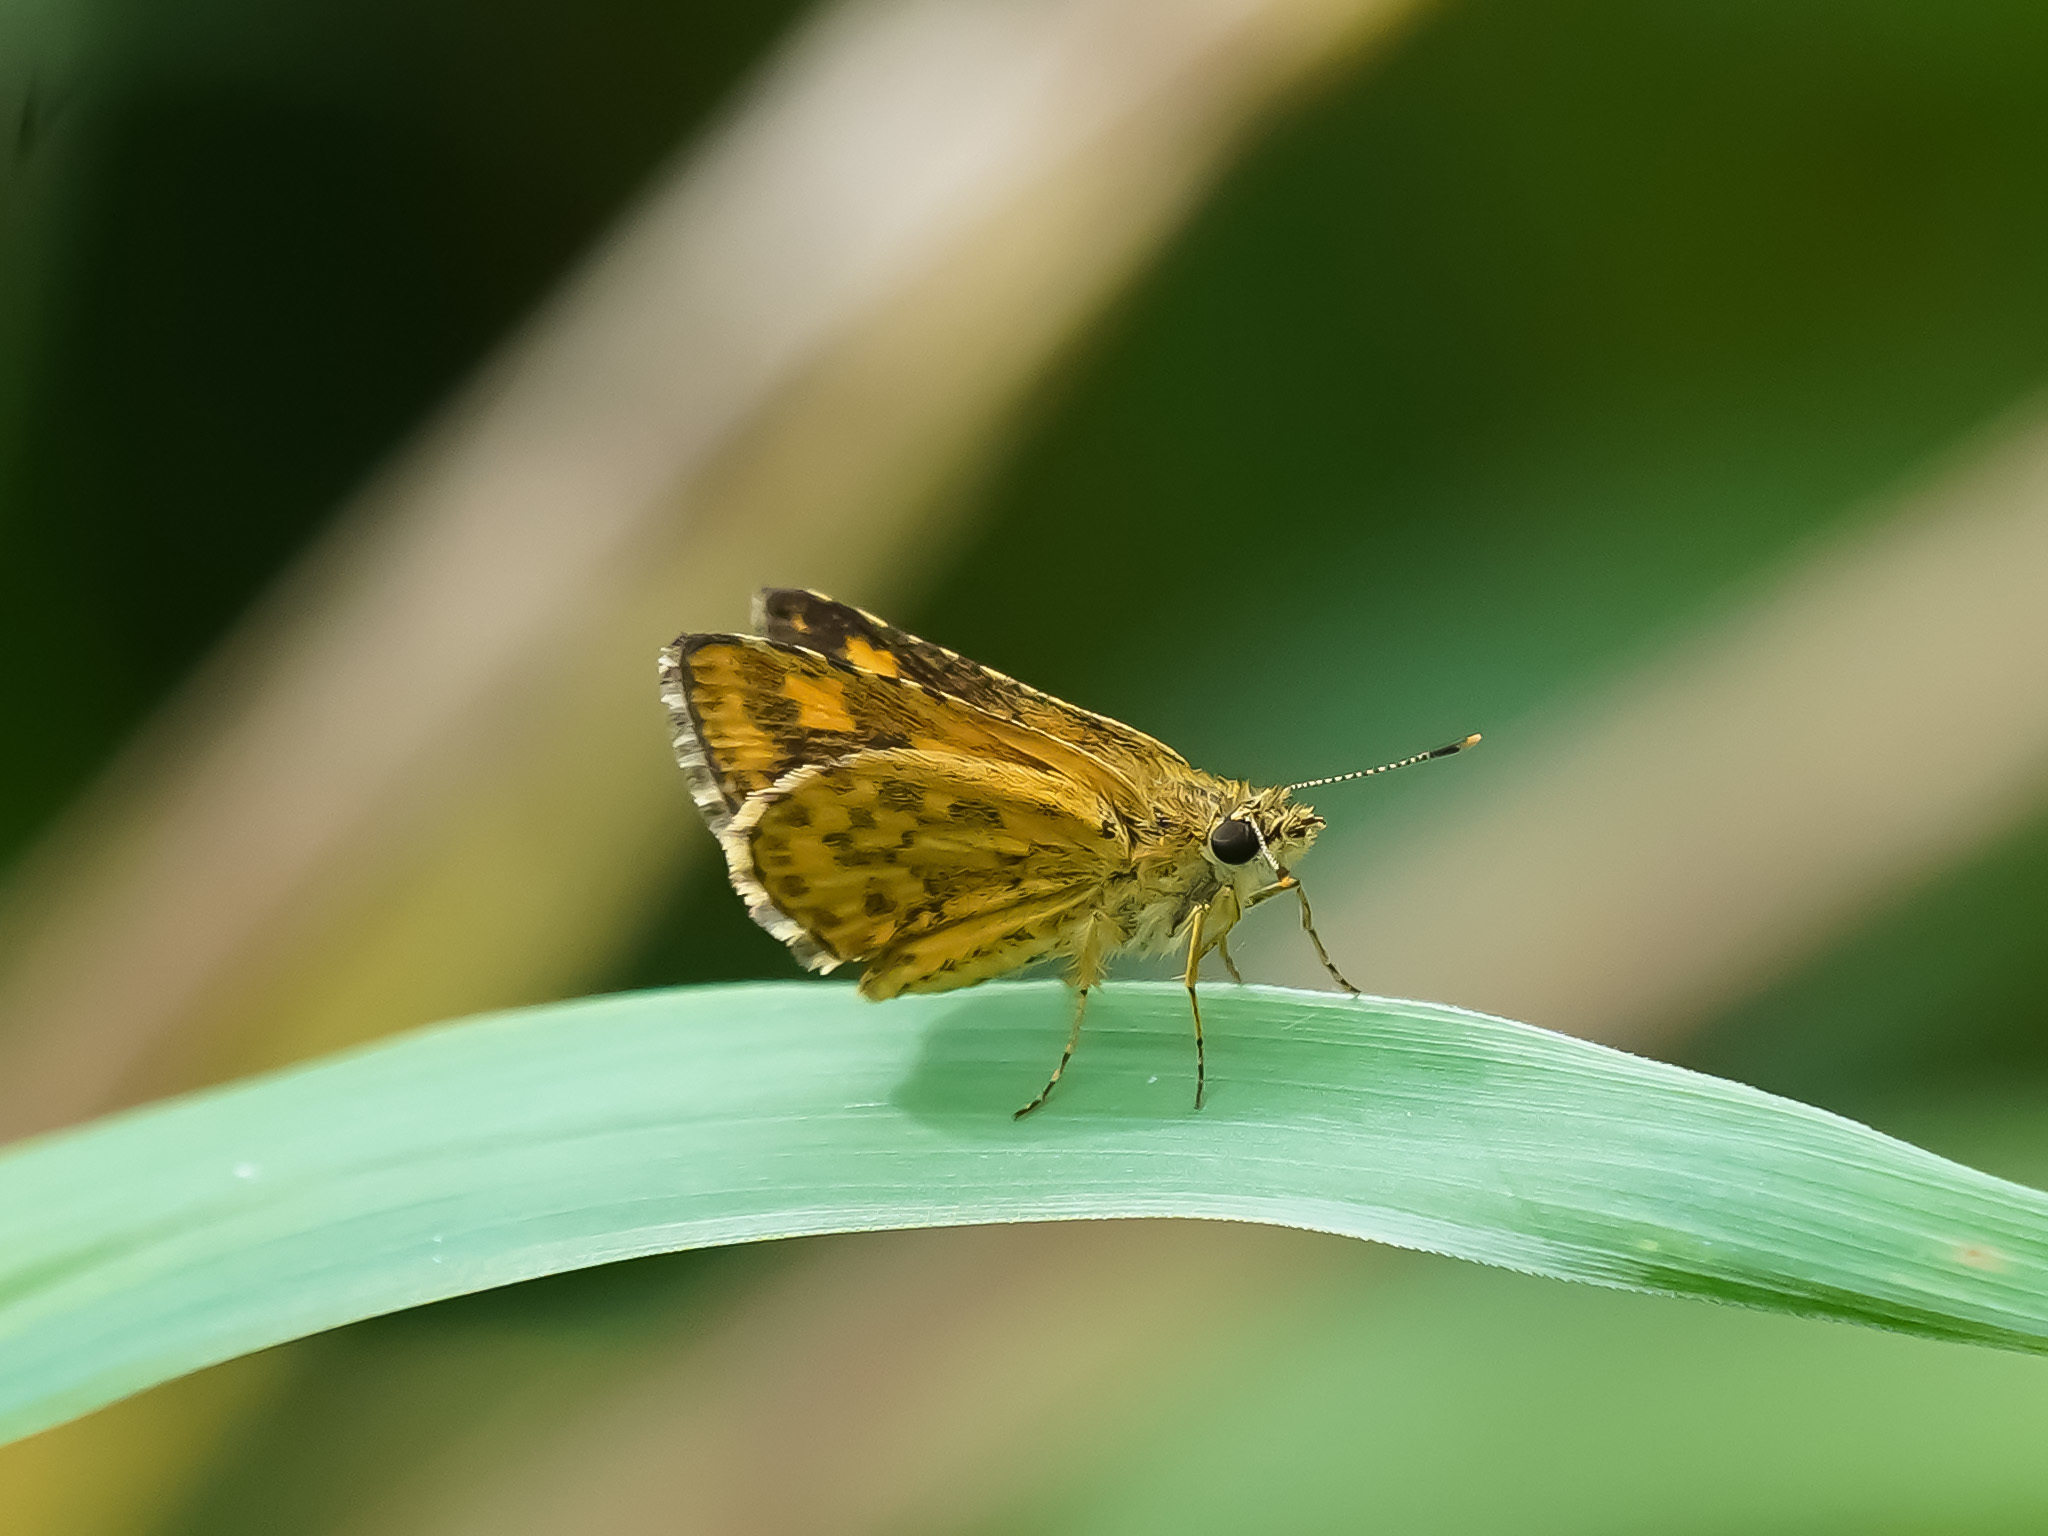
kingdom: Animalia
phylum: Arthropoda
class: Insecta
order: Lepidoptera
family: Hesperiidae
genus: Ampittia
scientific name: Ampittia dioscorides
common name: Common bush hopper
